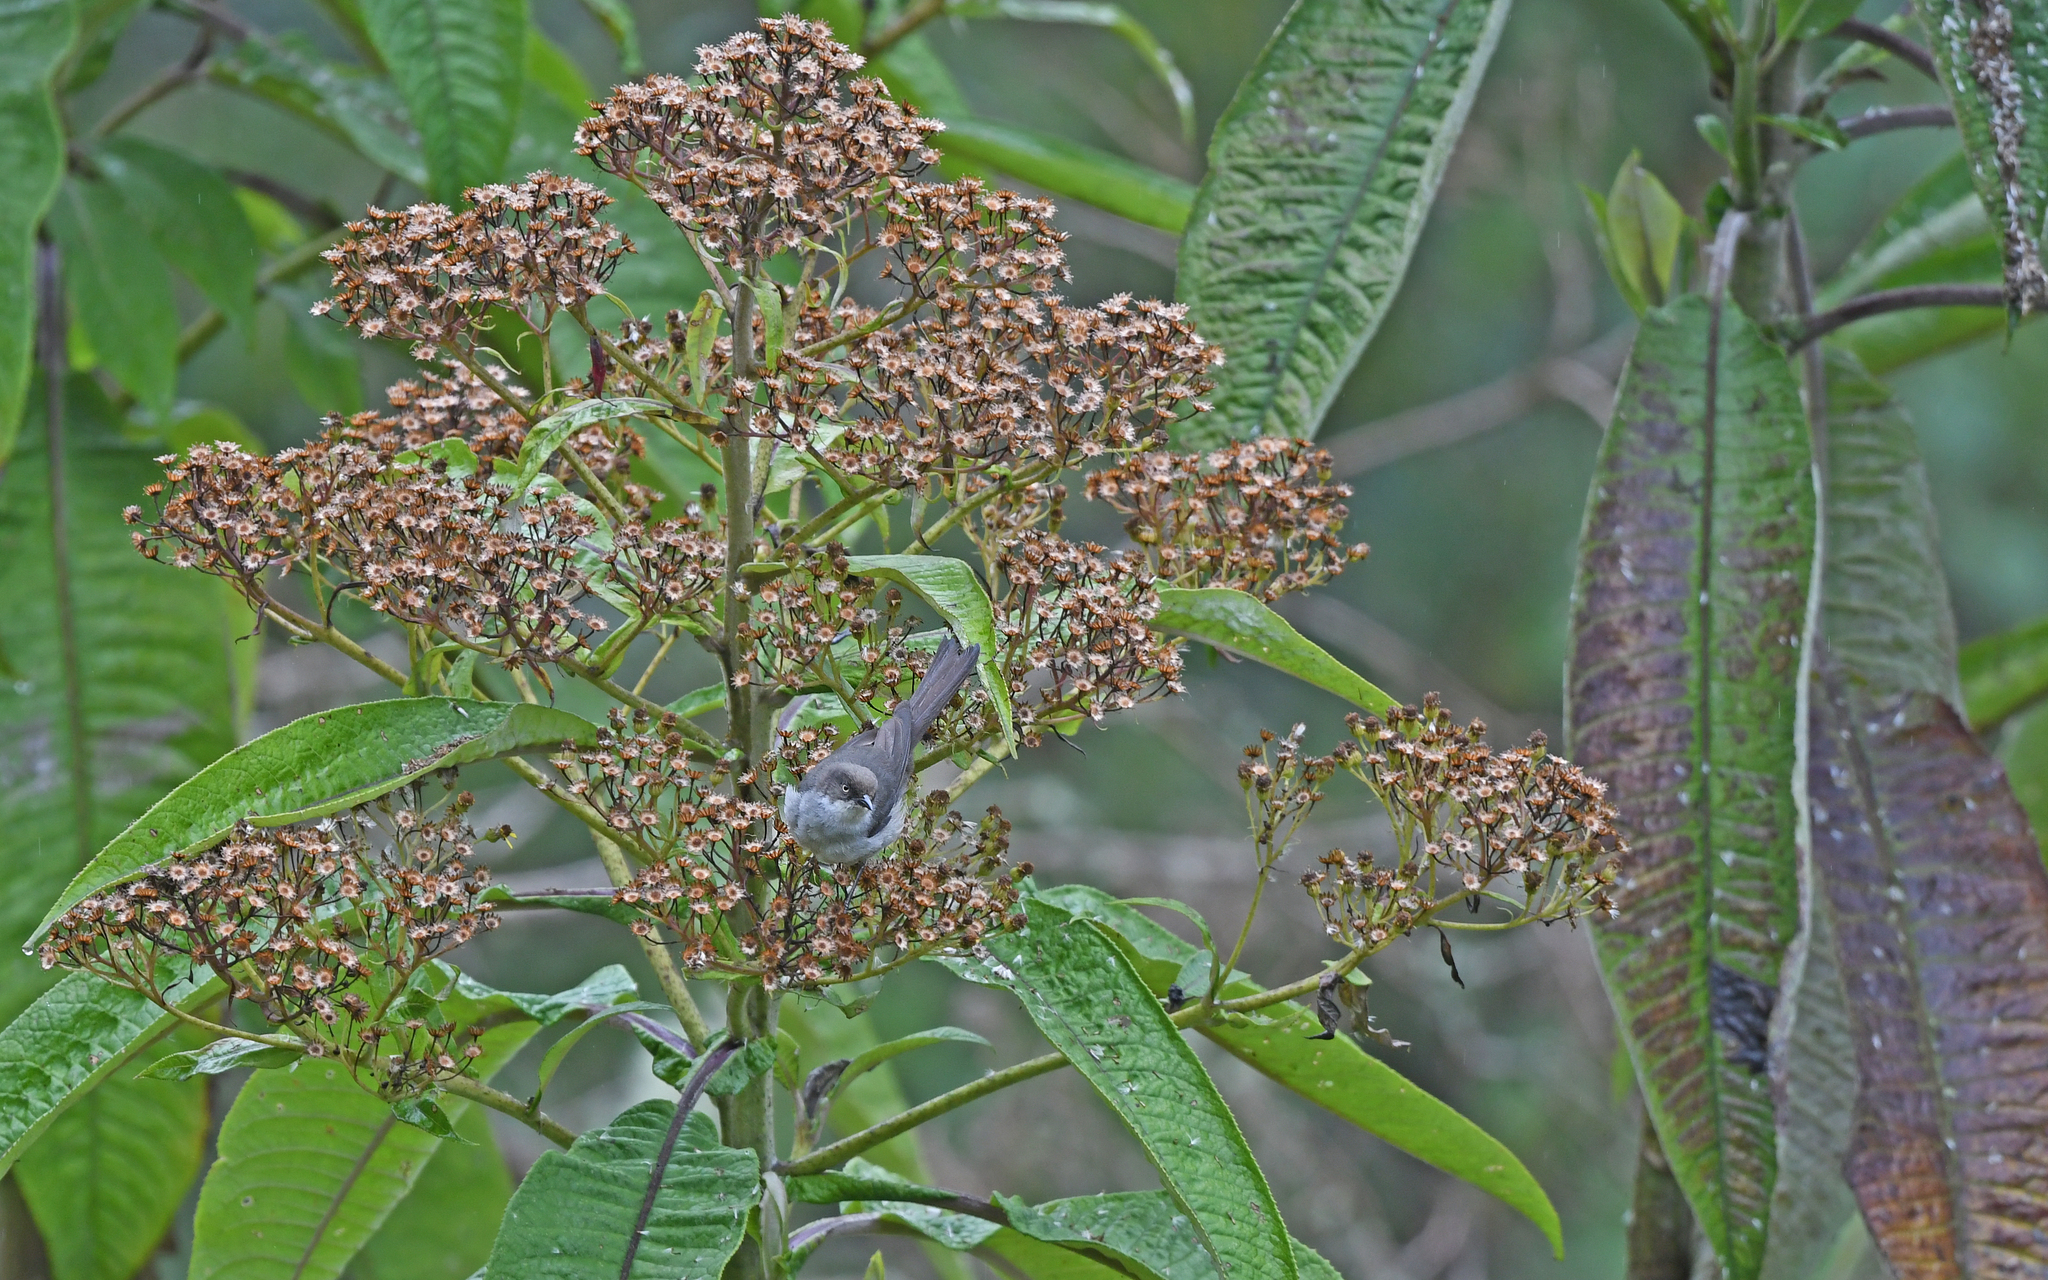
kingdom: Animalia
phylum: Chordata
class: Aves
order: Passeriformes
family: Thraupidae
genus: Pseudospingus
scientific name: Pseudospingus xanthophthalmus
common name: Drab hemispingus
